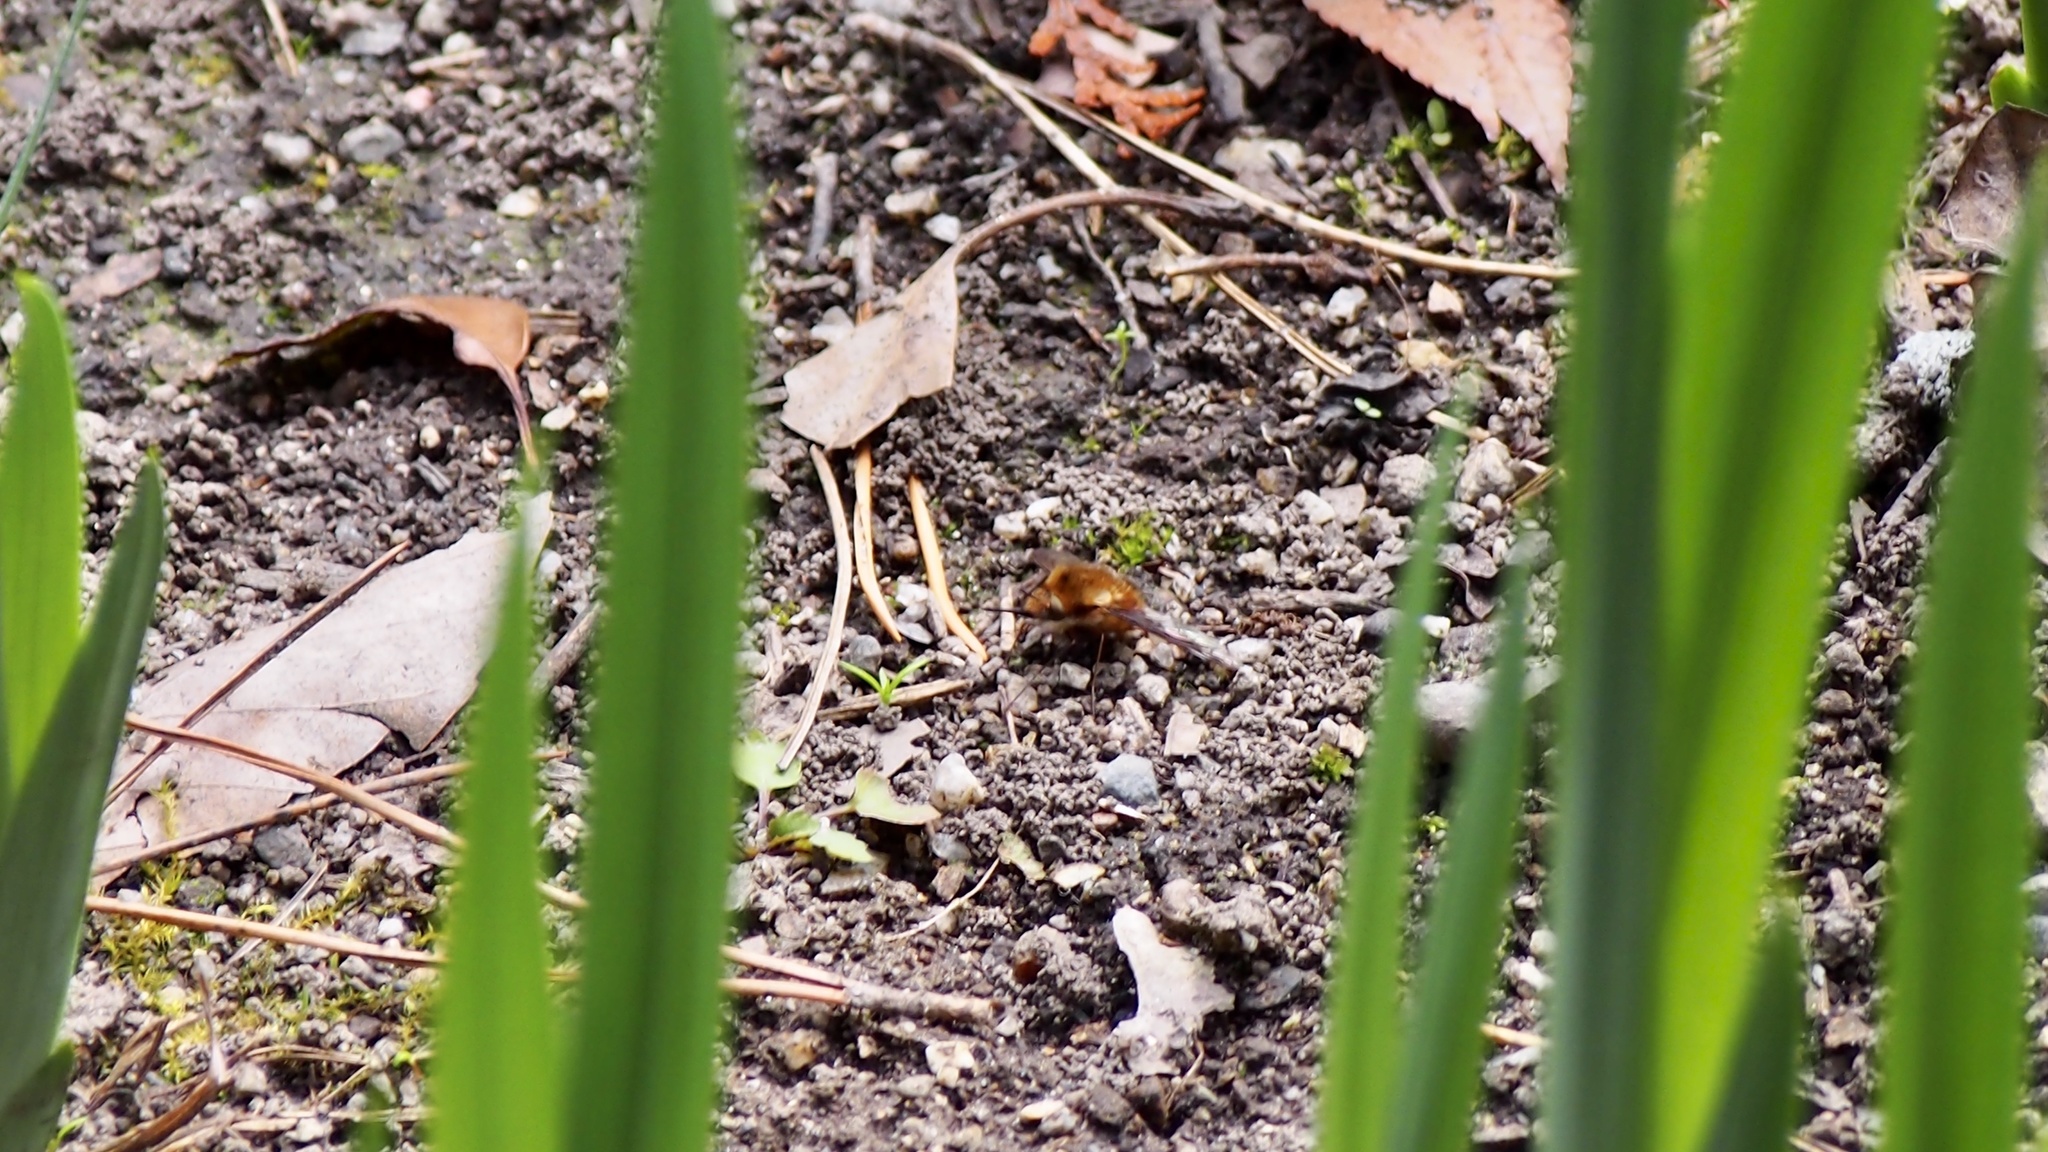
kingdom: Animalia
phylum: Arthropoda
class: Insecta
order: Diptera
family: Bombyliidae
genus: Bombylius
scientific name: Bombylius major
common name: Bee fly
